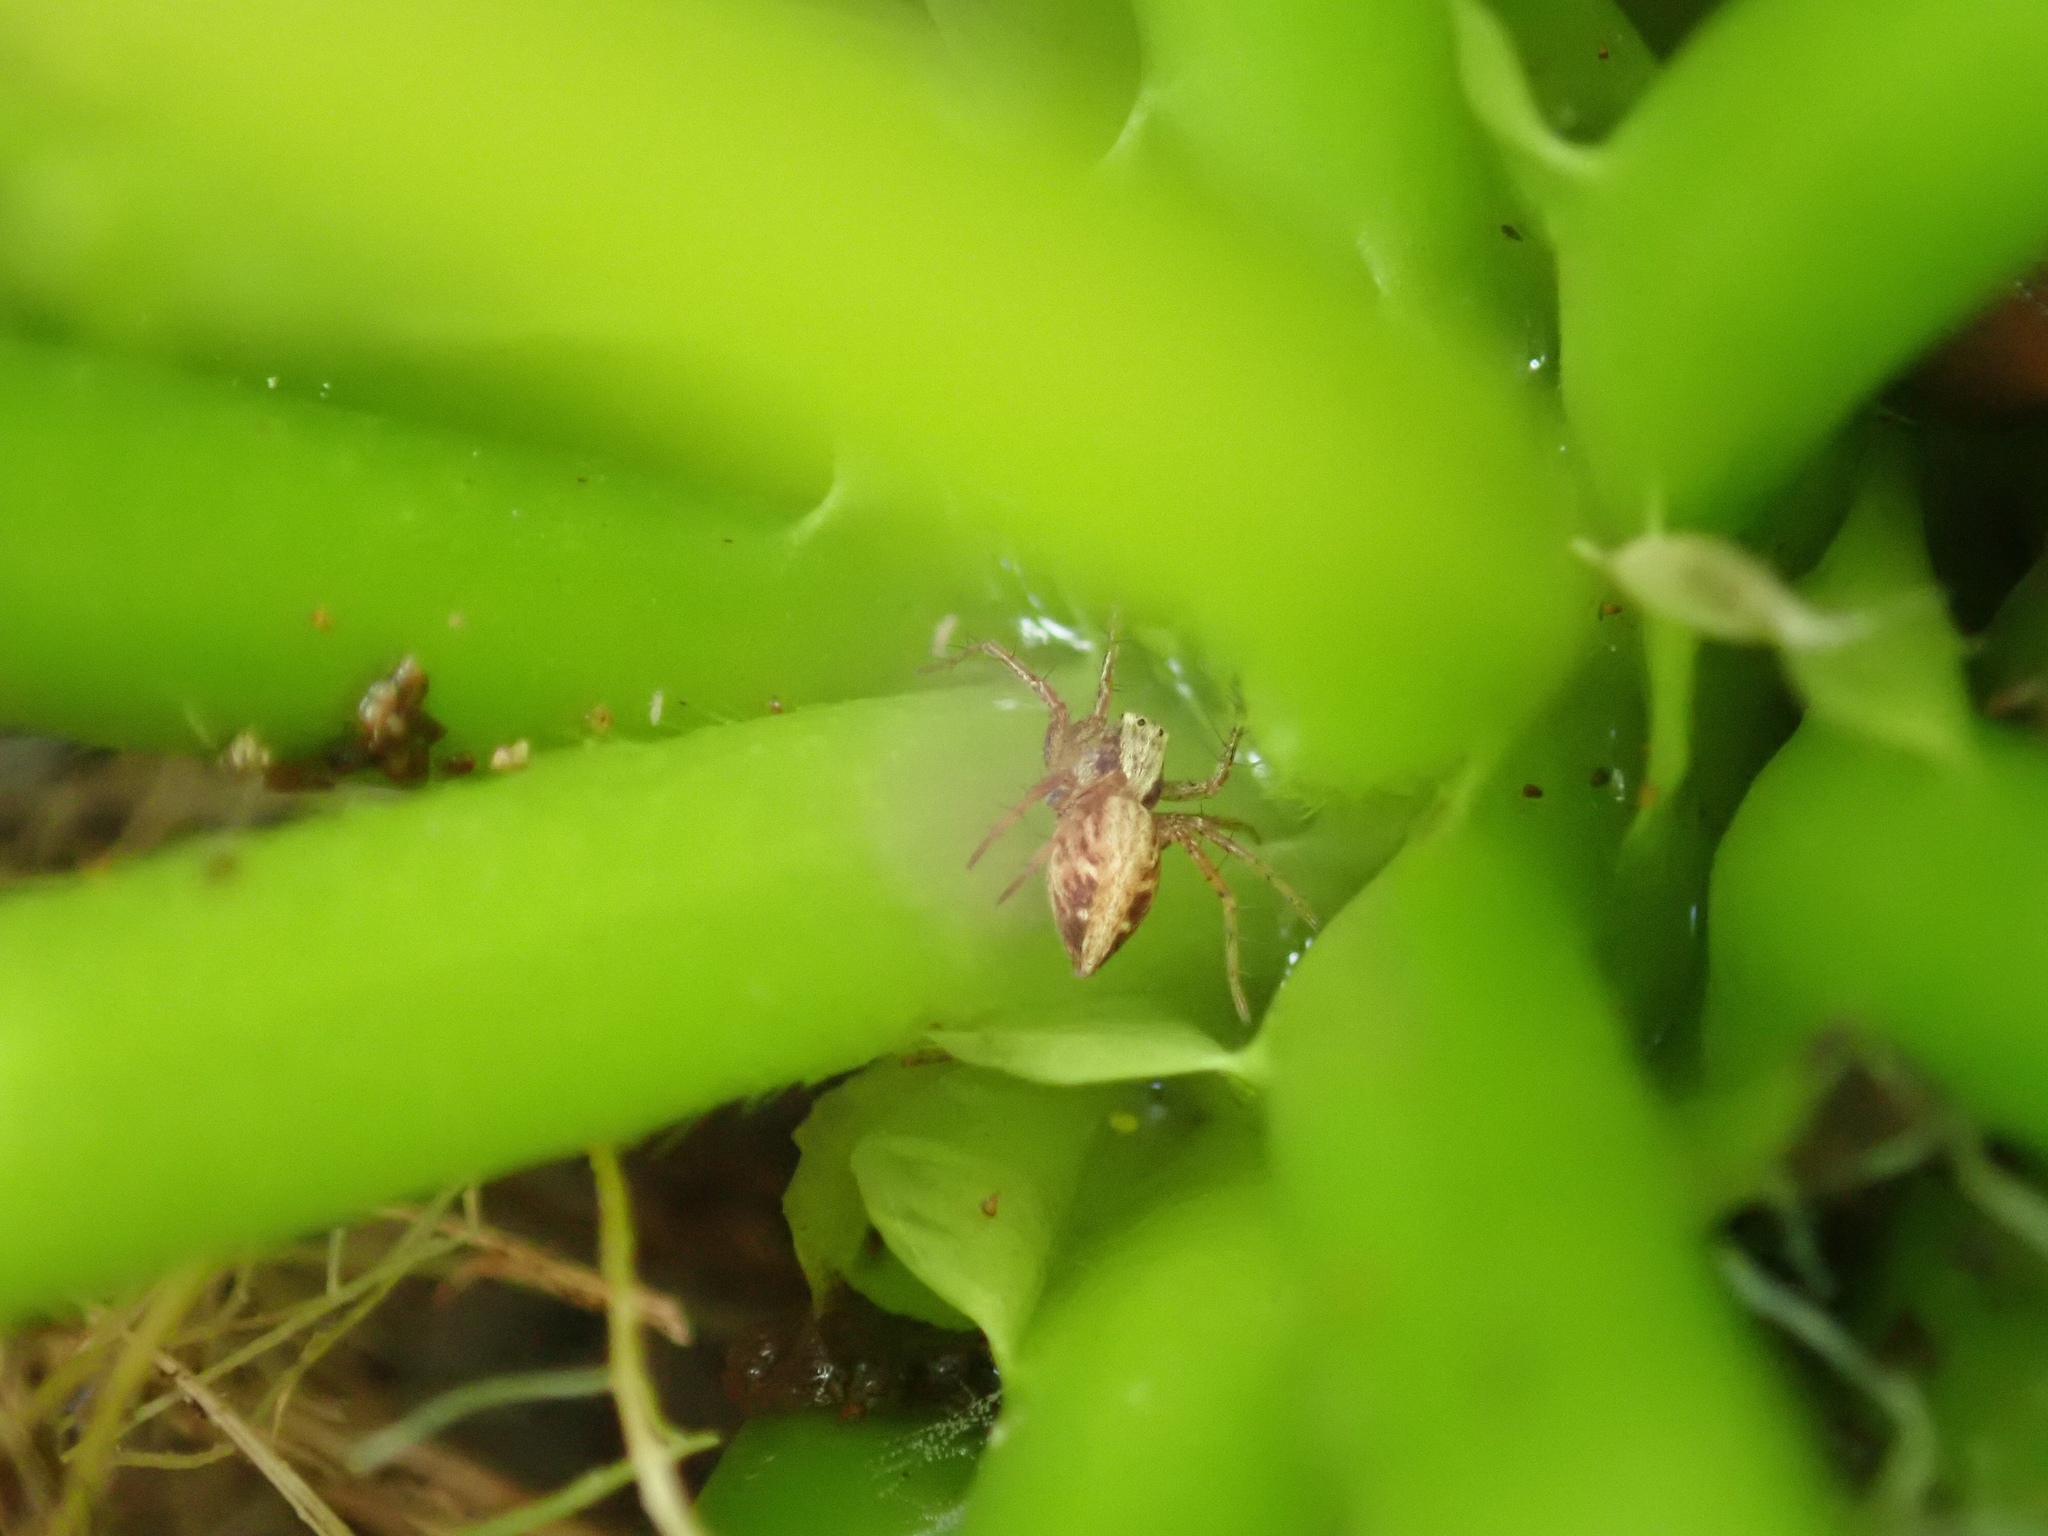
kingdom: Animalia
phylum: Arthropoda
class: Arachnida
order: Araneae
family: Oxyopidae
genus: Oxyopes
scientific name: Oxyopes gracilipes
